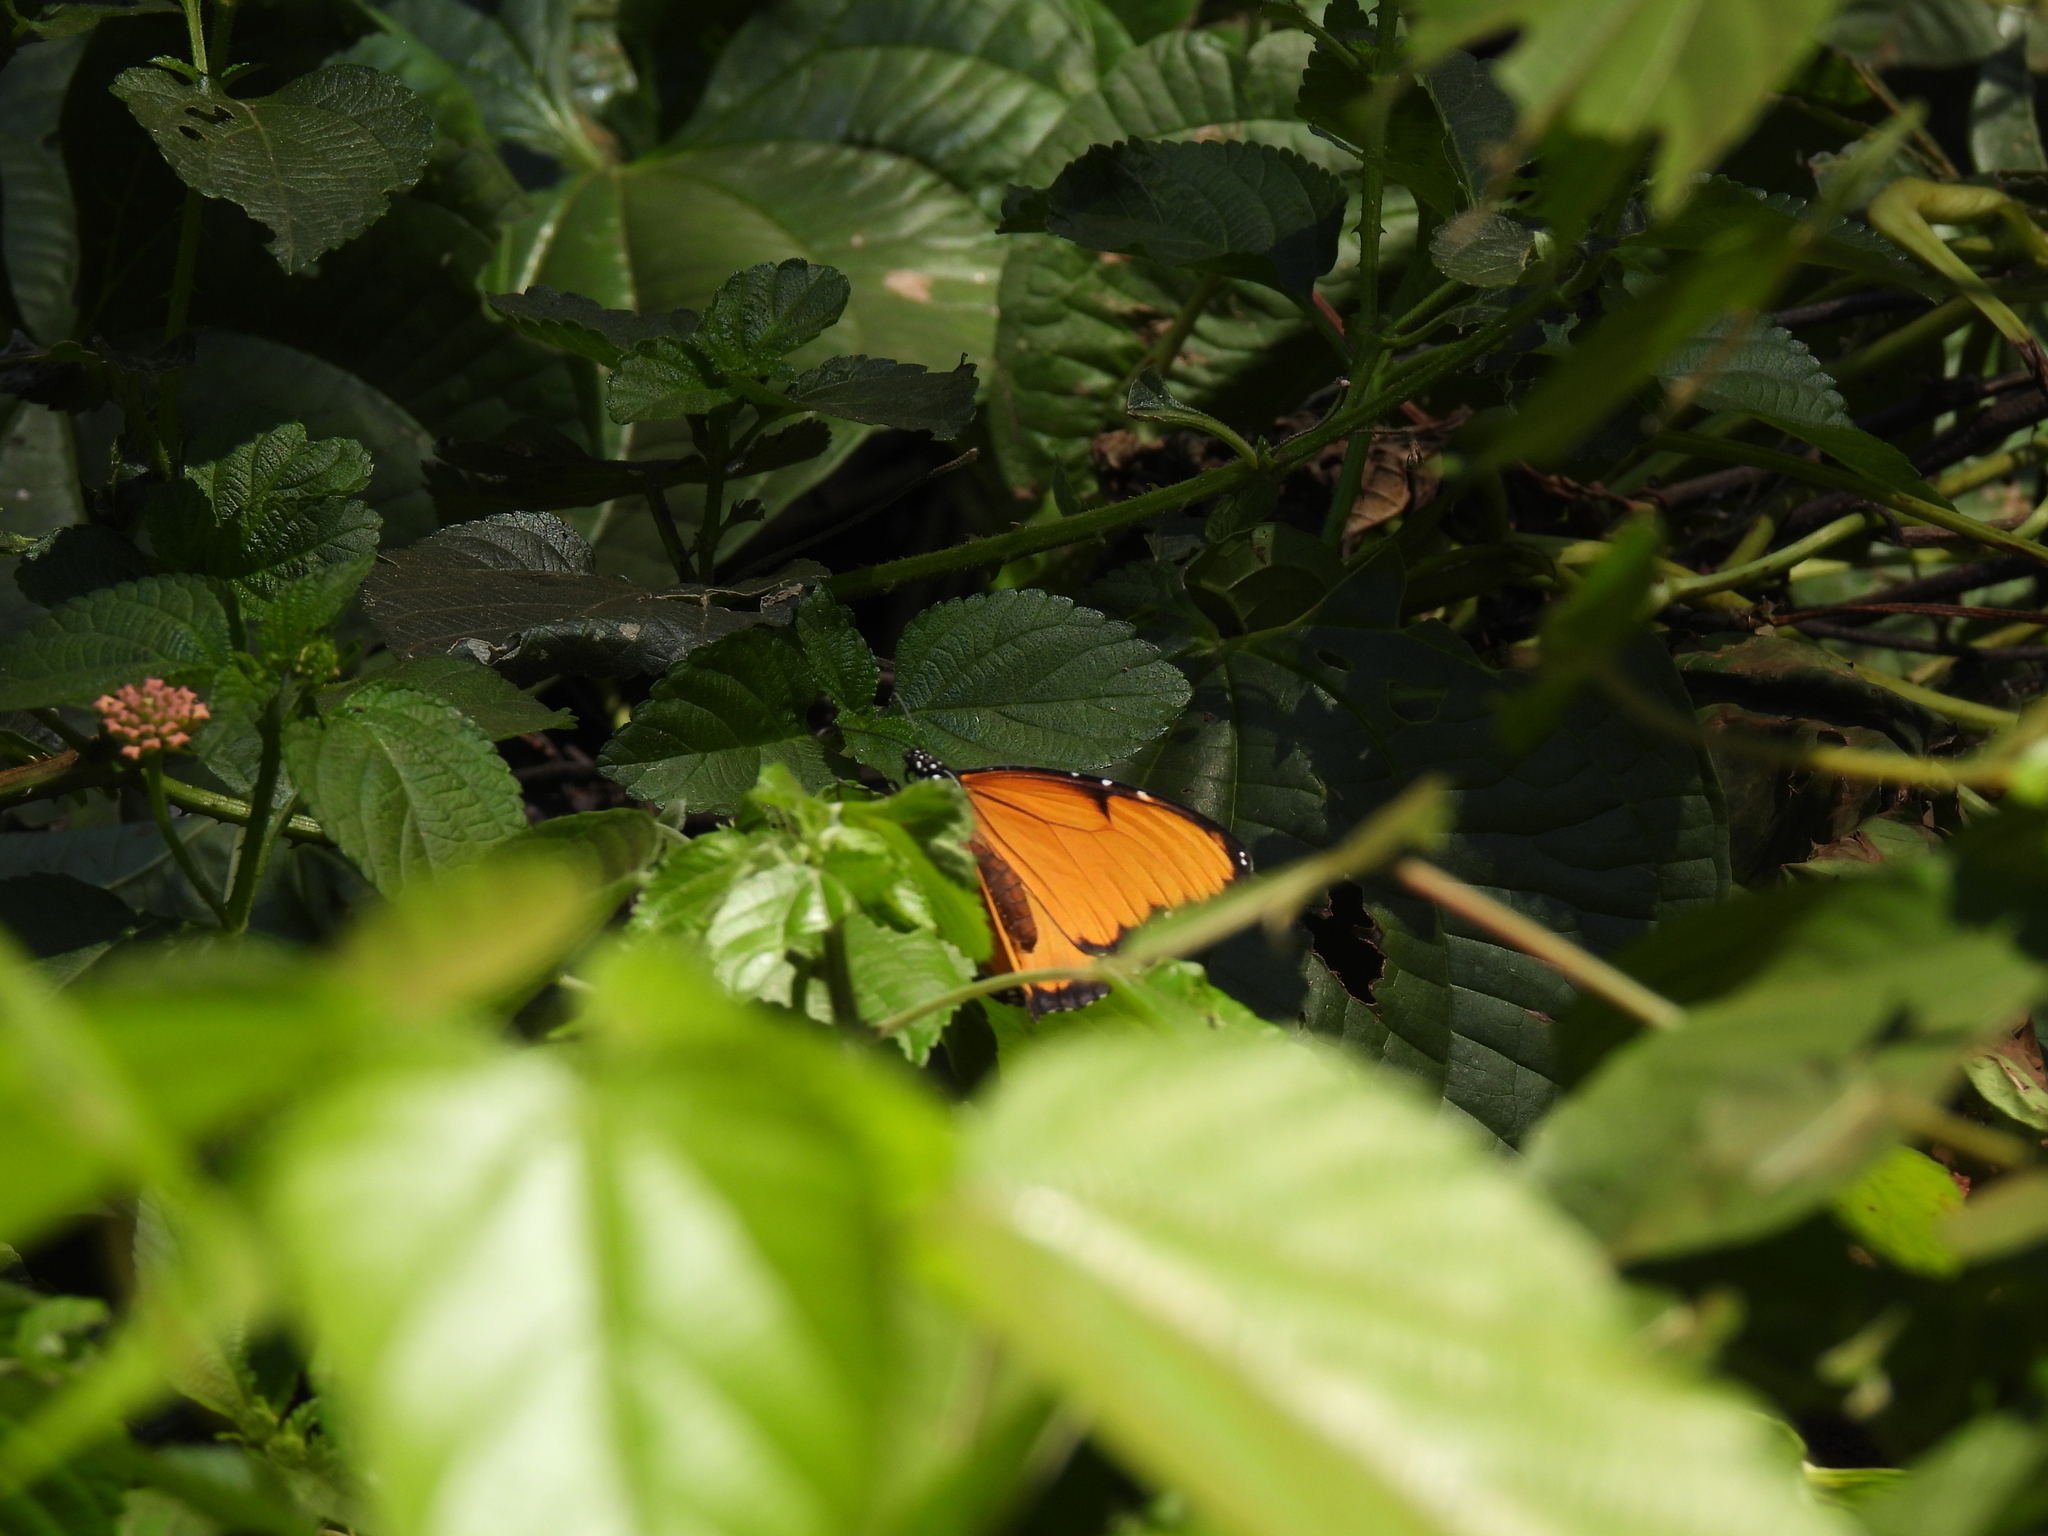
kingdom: Animalia
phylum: Arthropoda
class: Insecta
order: Lepidoptera
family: Nymphalidae
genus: Danaus
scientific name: Danaus chrysippus
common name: Plain tiger
